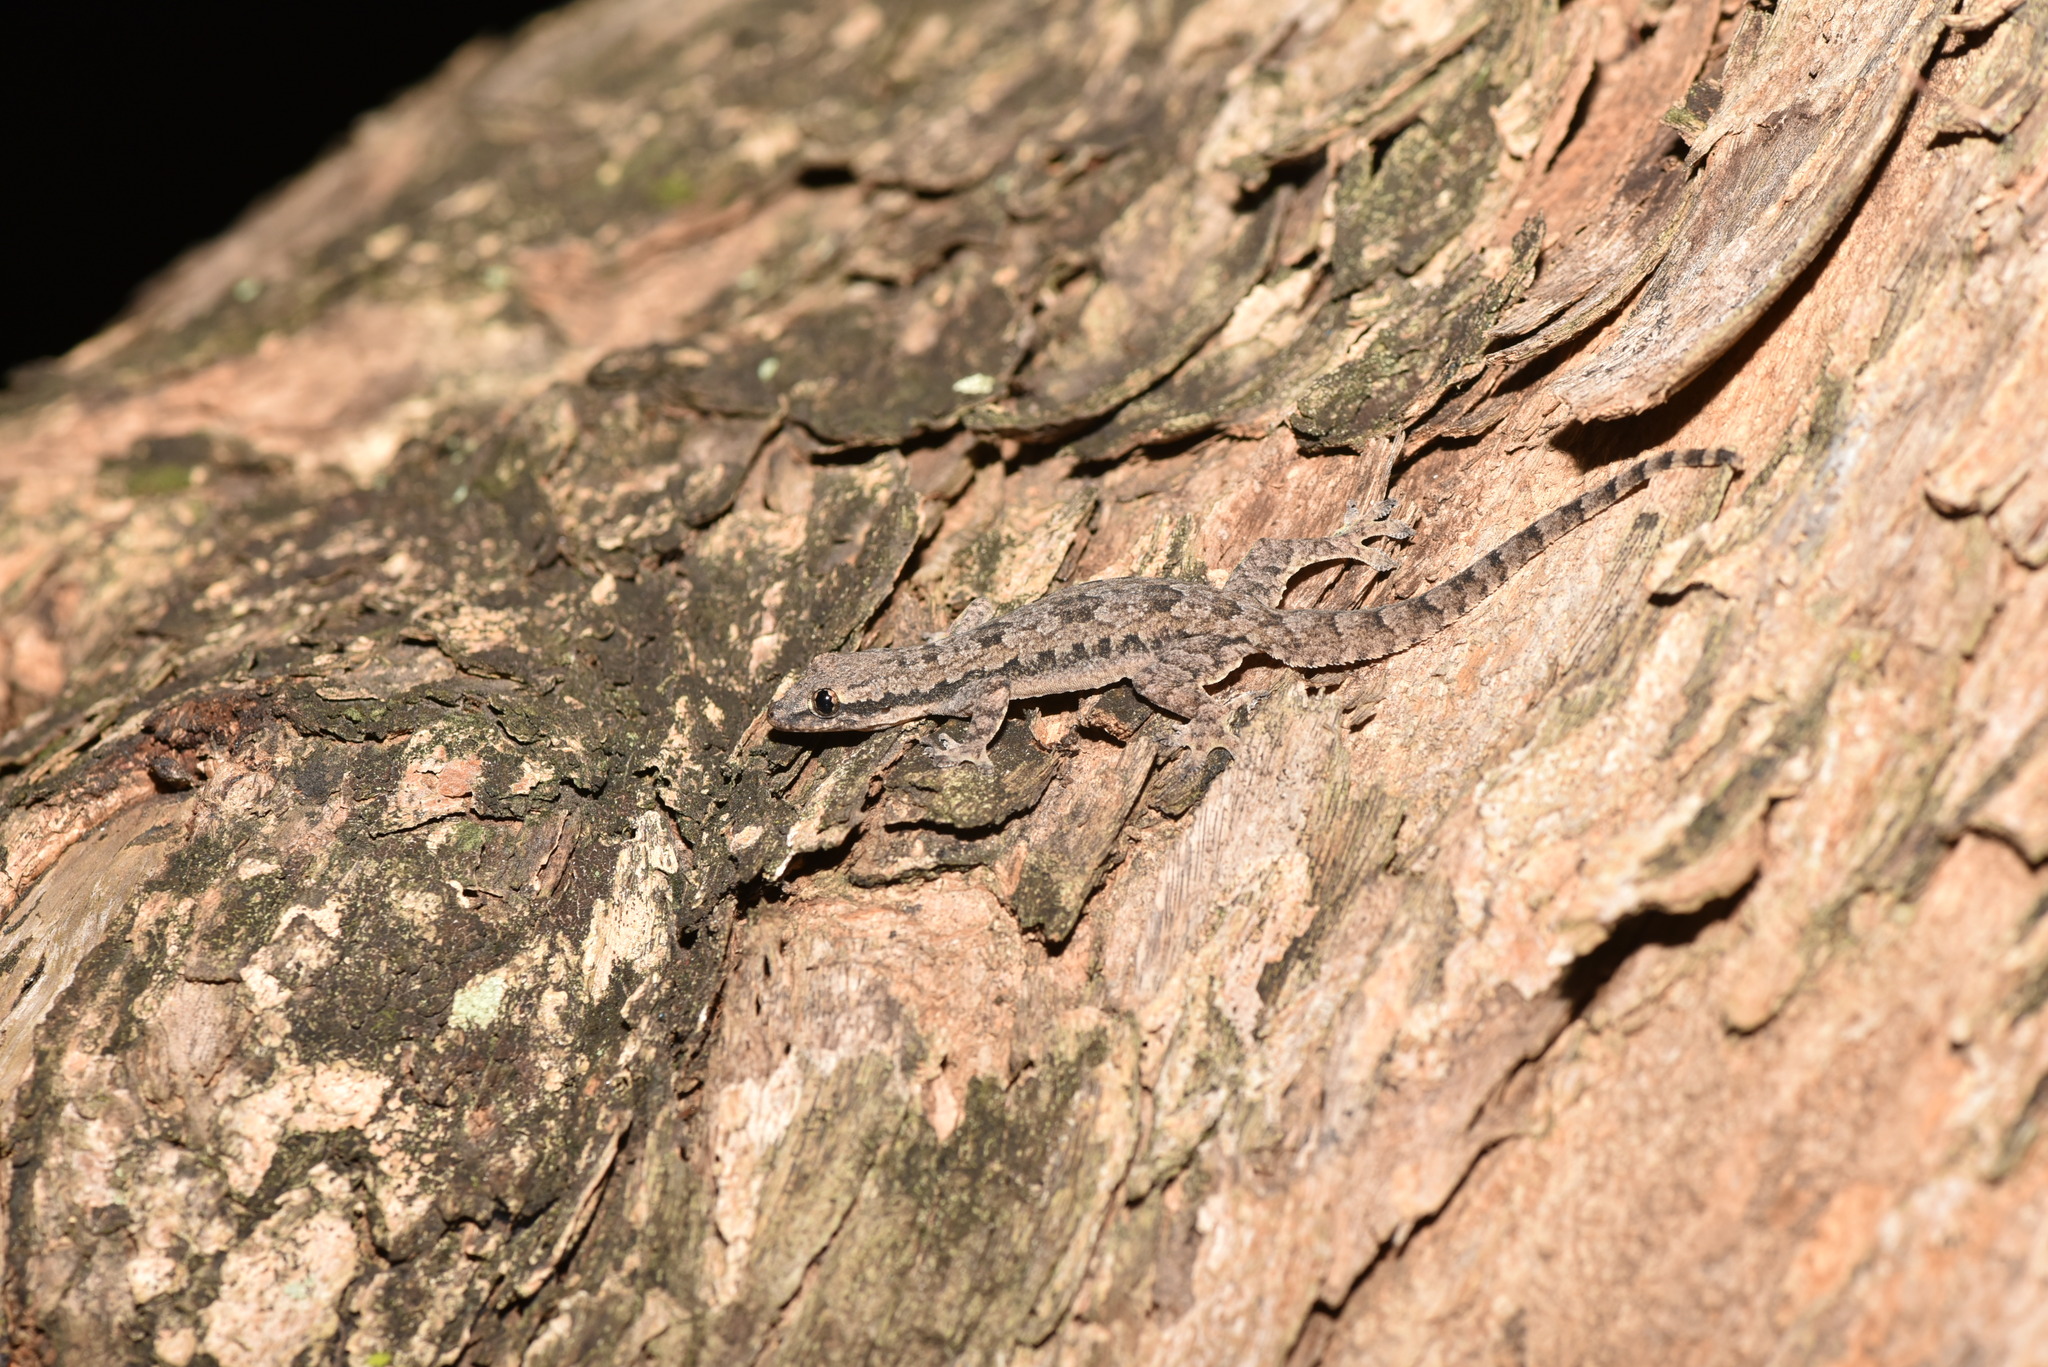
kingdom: Animalia
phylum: Chordata
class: Squamata
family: Gekkonidae
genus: Hemidactylus
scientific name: Hemidactylus platyurus
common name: Flat-tailed house gecko
